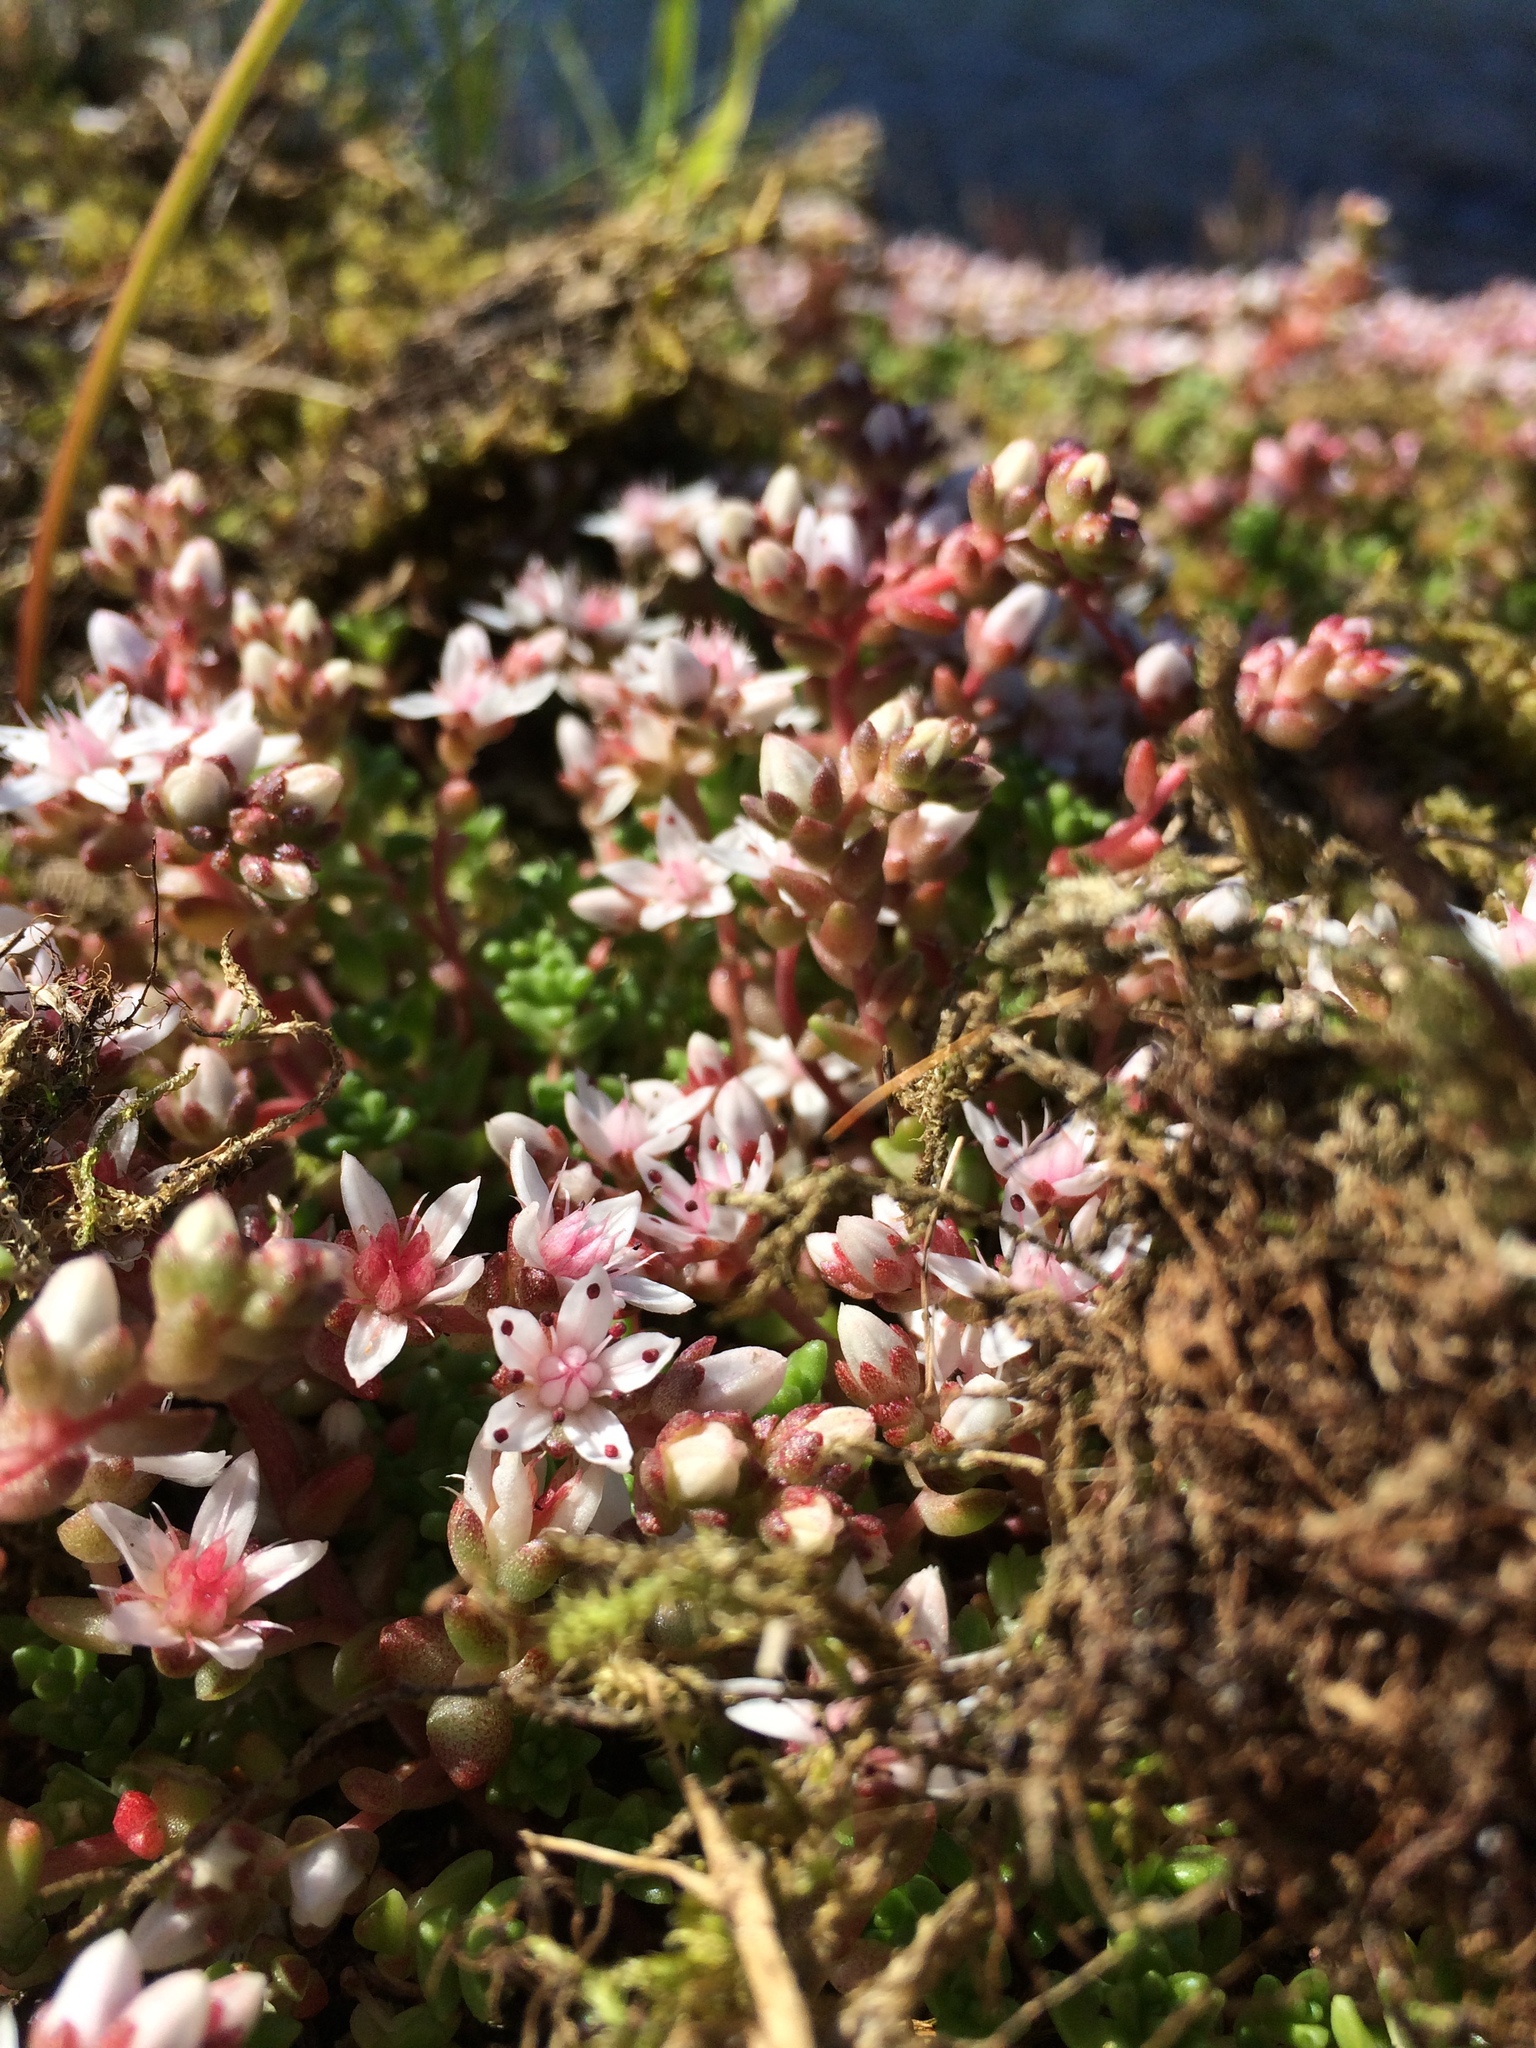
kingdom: Plantae
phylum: Tracheophyta
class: Magnoliopsida
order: Saxifragales
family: Crassulaceae
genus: Sedum
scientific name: Sedum anglicum
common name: English stonecrop
